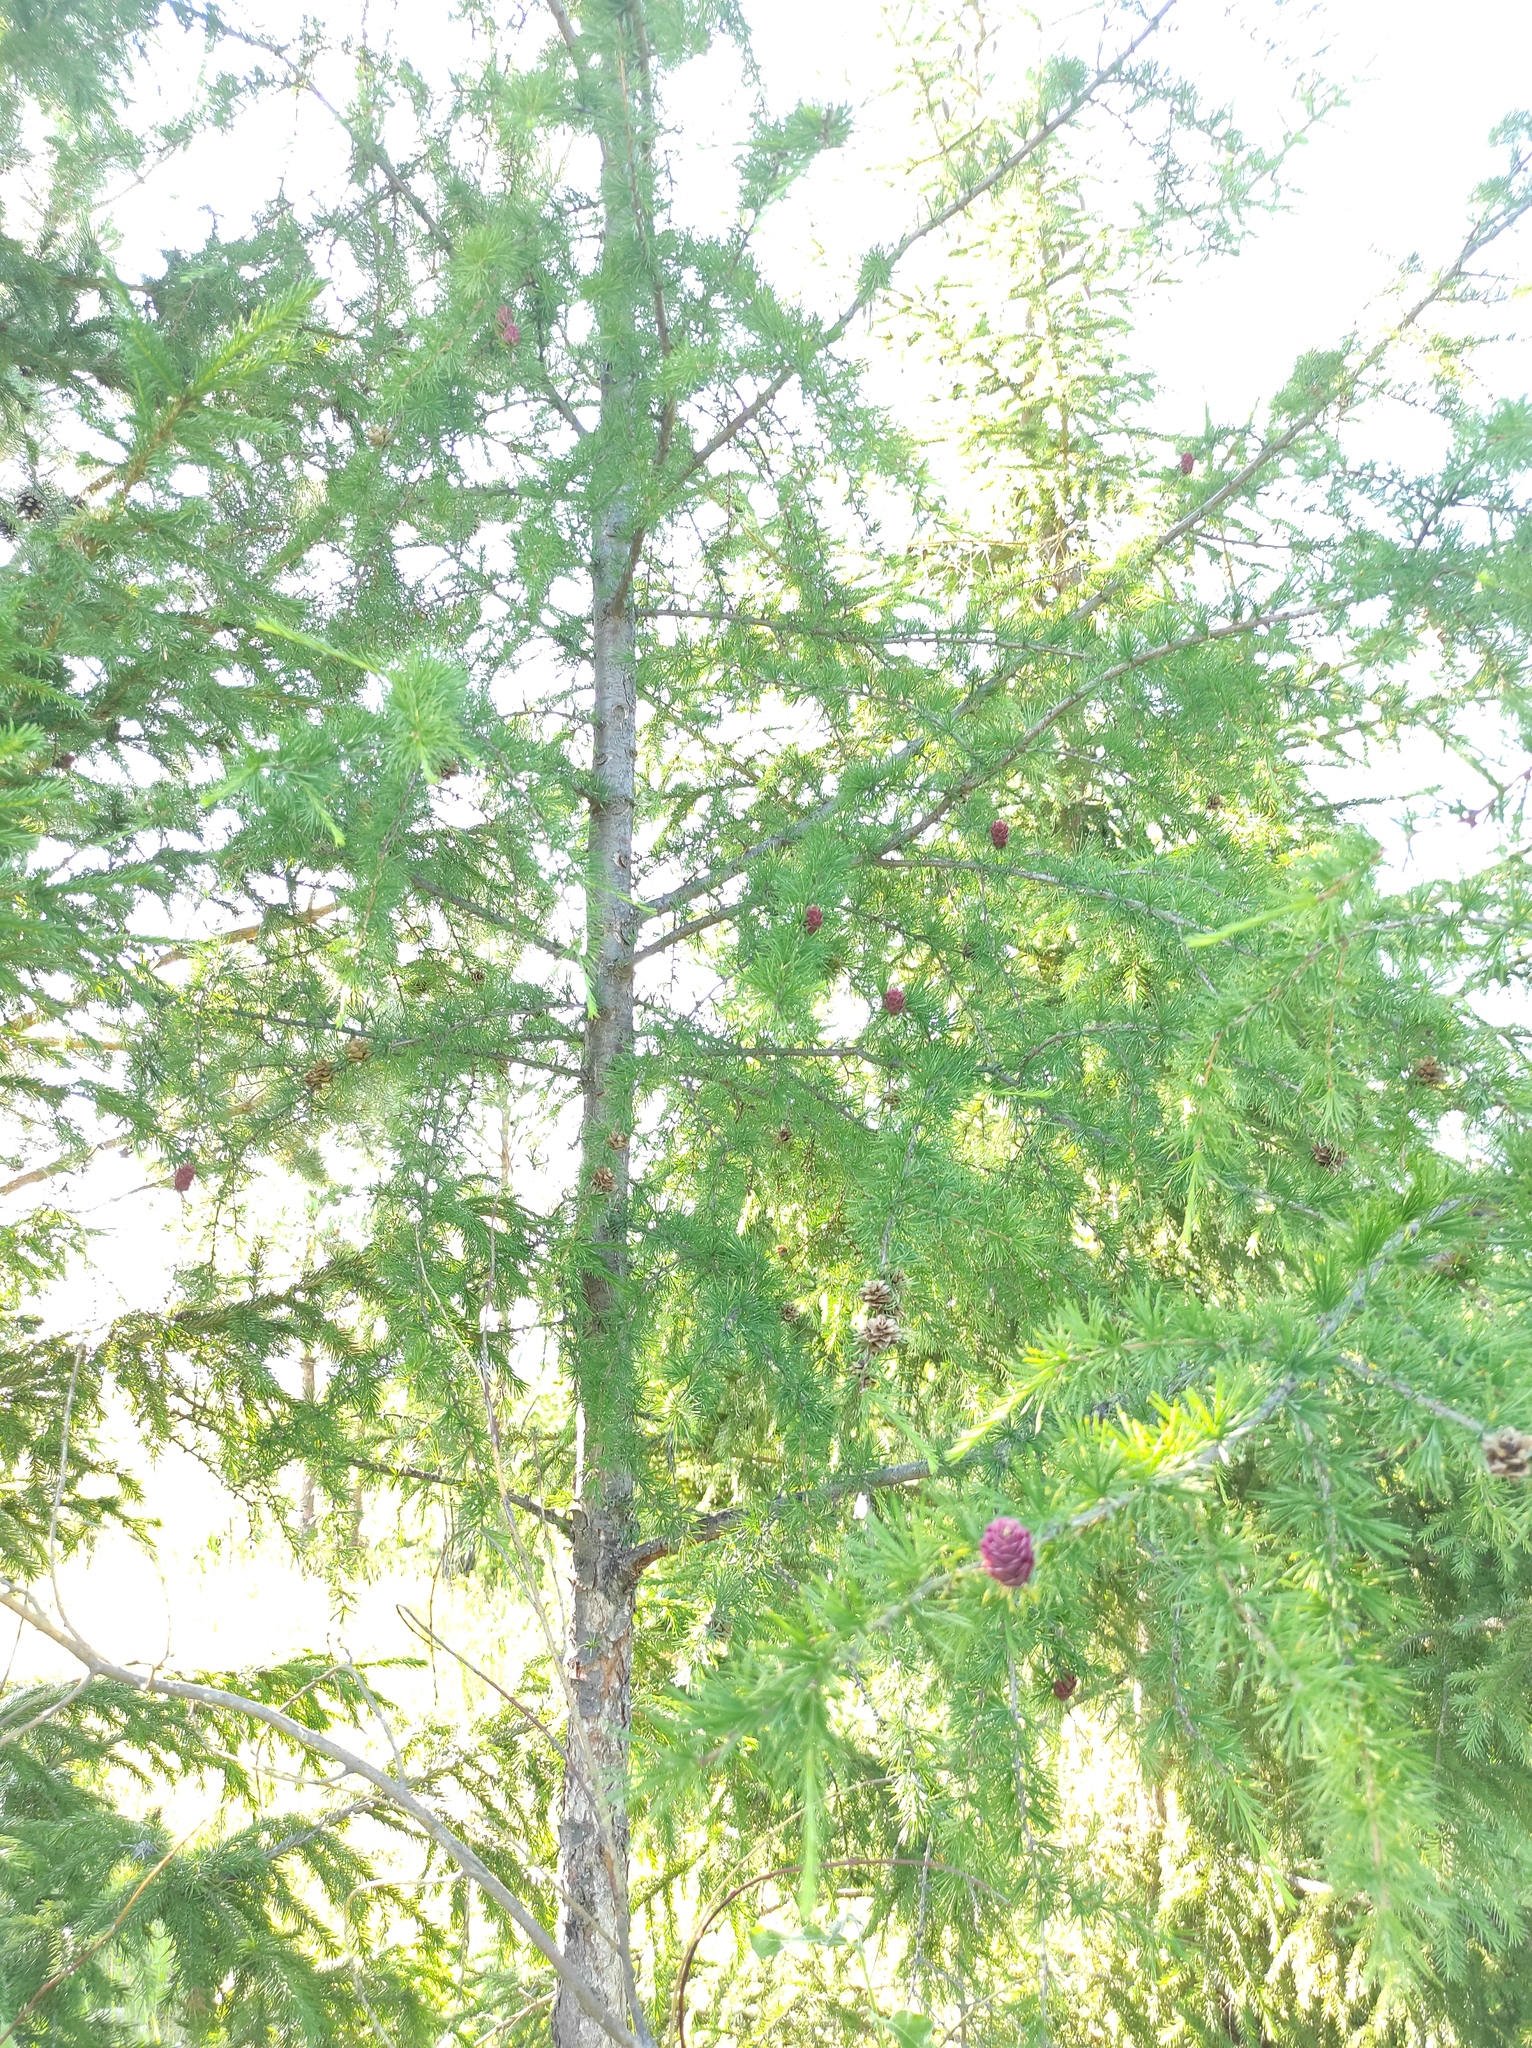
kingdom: Plantae
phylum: Tracheophyta
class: Pinopsida
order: Pinales
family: Pinaceae
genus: Larix
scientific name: Larix gmelinii
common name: Dahurian larch
